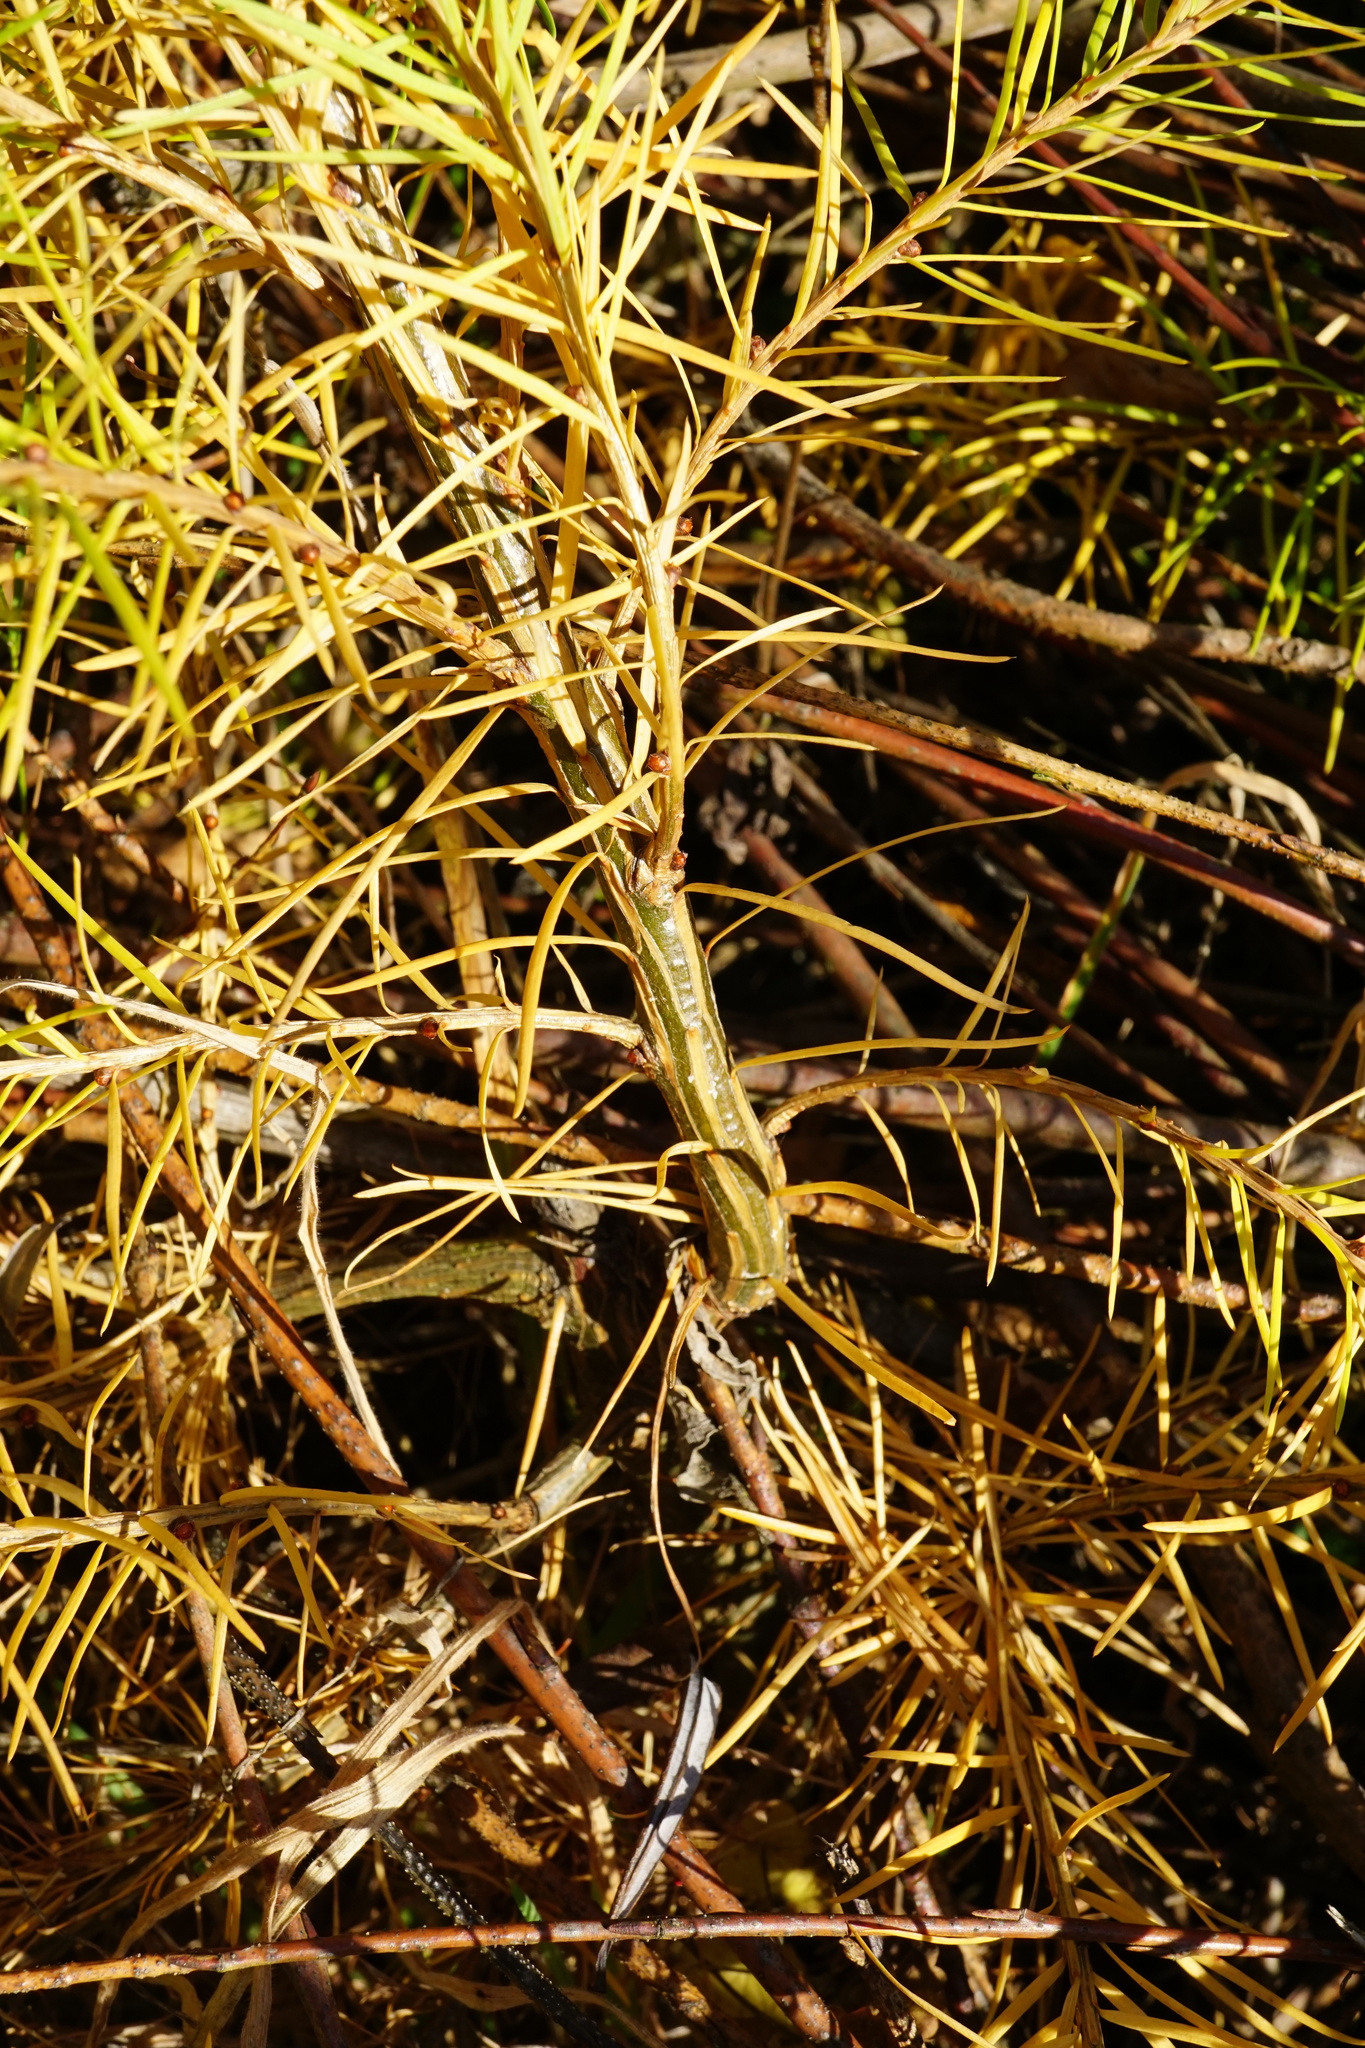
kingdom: Plantae
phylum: Tracheophyta
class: Pinopsida
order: Pinales
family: Pinaceae
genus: Larix
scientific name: Larix decidua
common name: European larch
